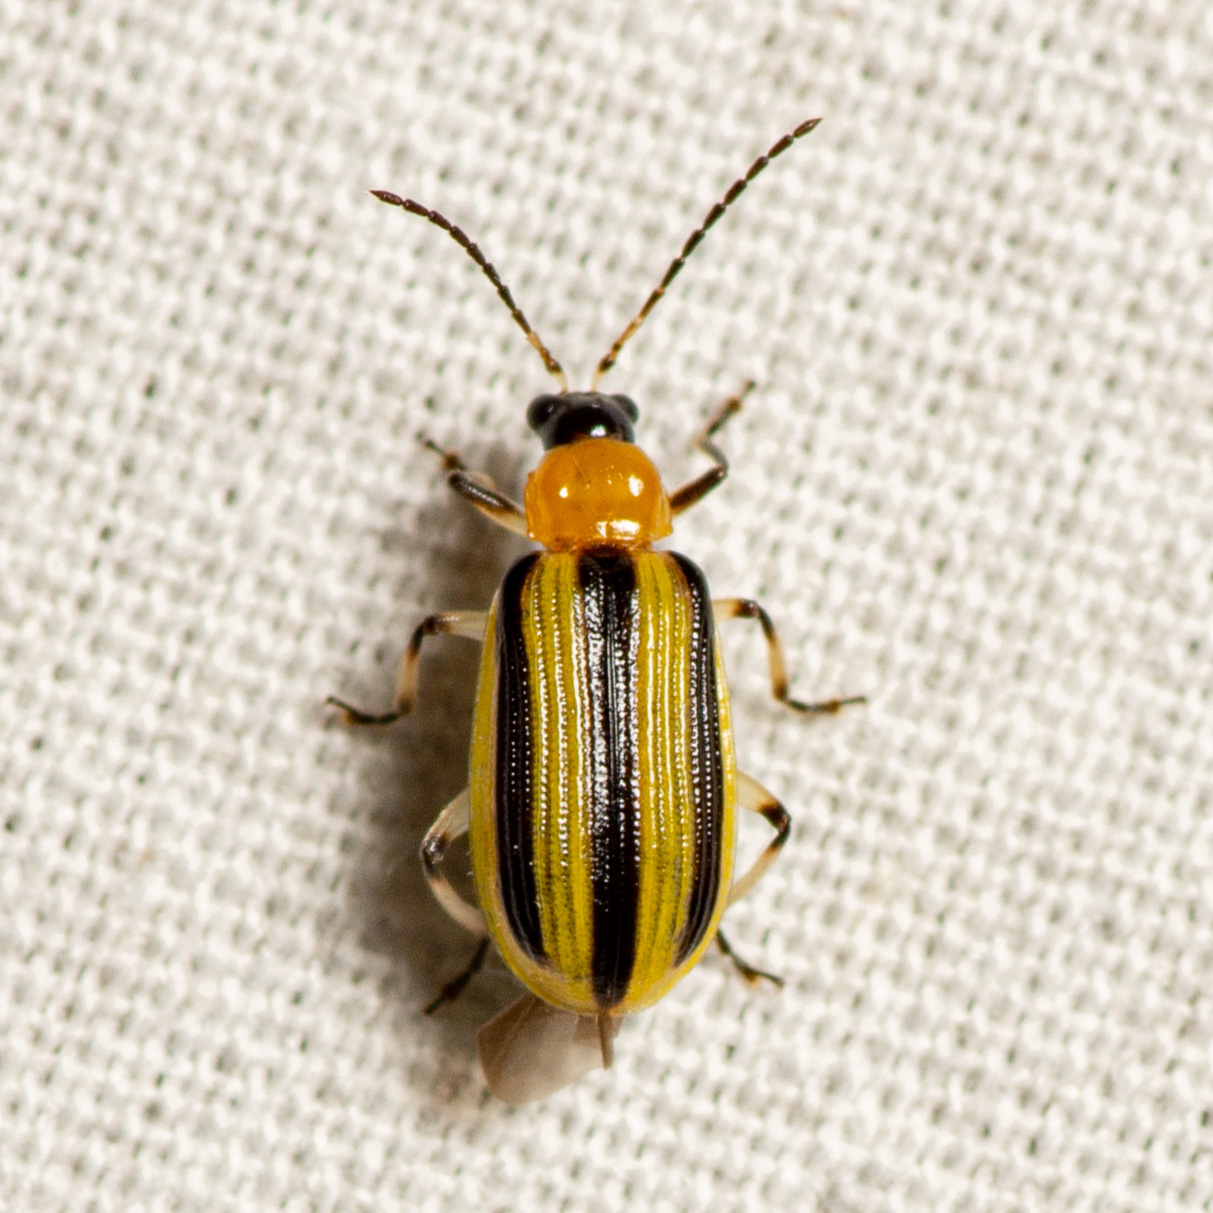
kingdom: Animalia
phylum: Arthropoda
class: Insecta
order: Coleoptera
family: Chrysomelidae
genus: Acalymma
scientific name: Acalymma vittatum
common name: Striped cucumber beetle
